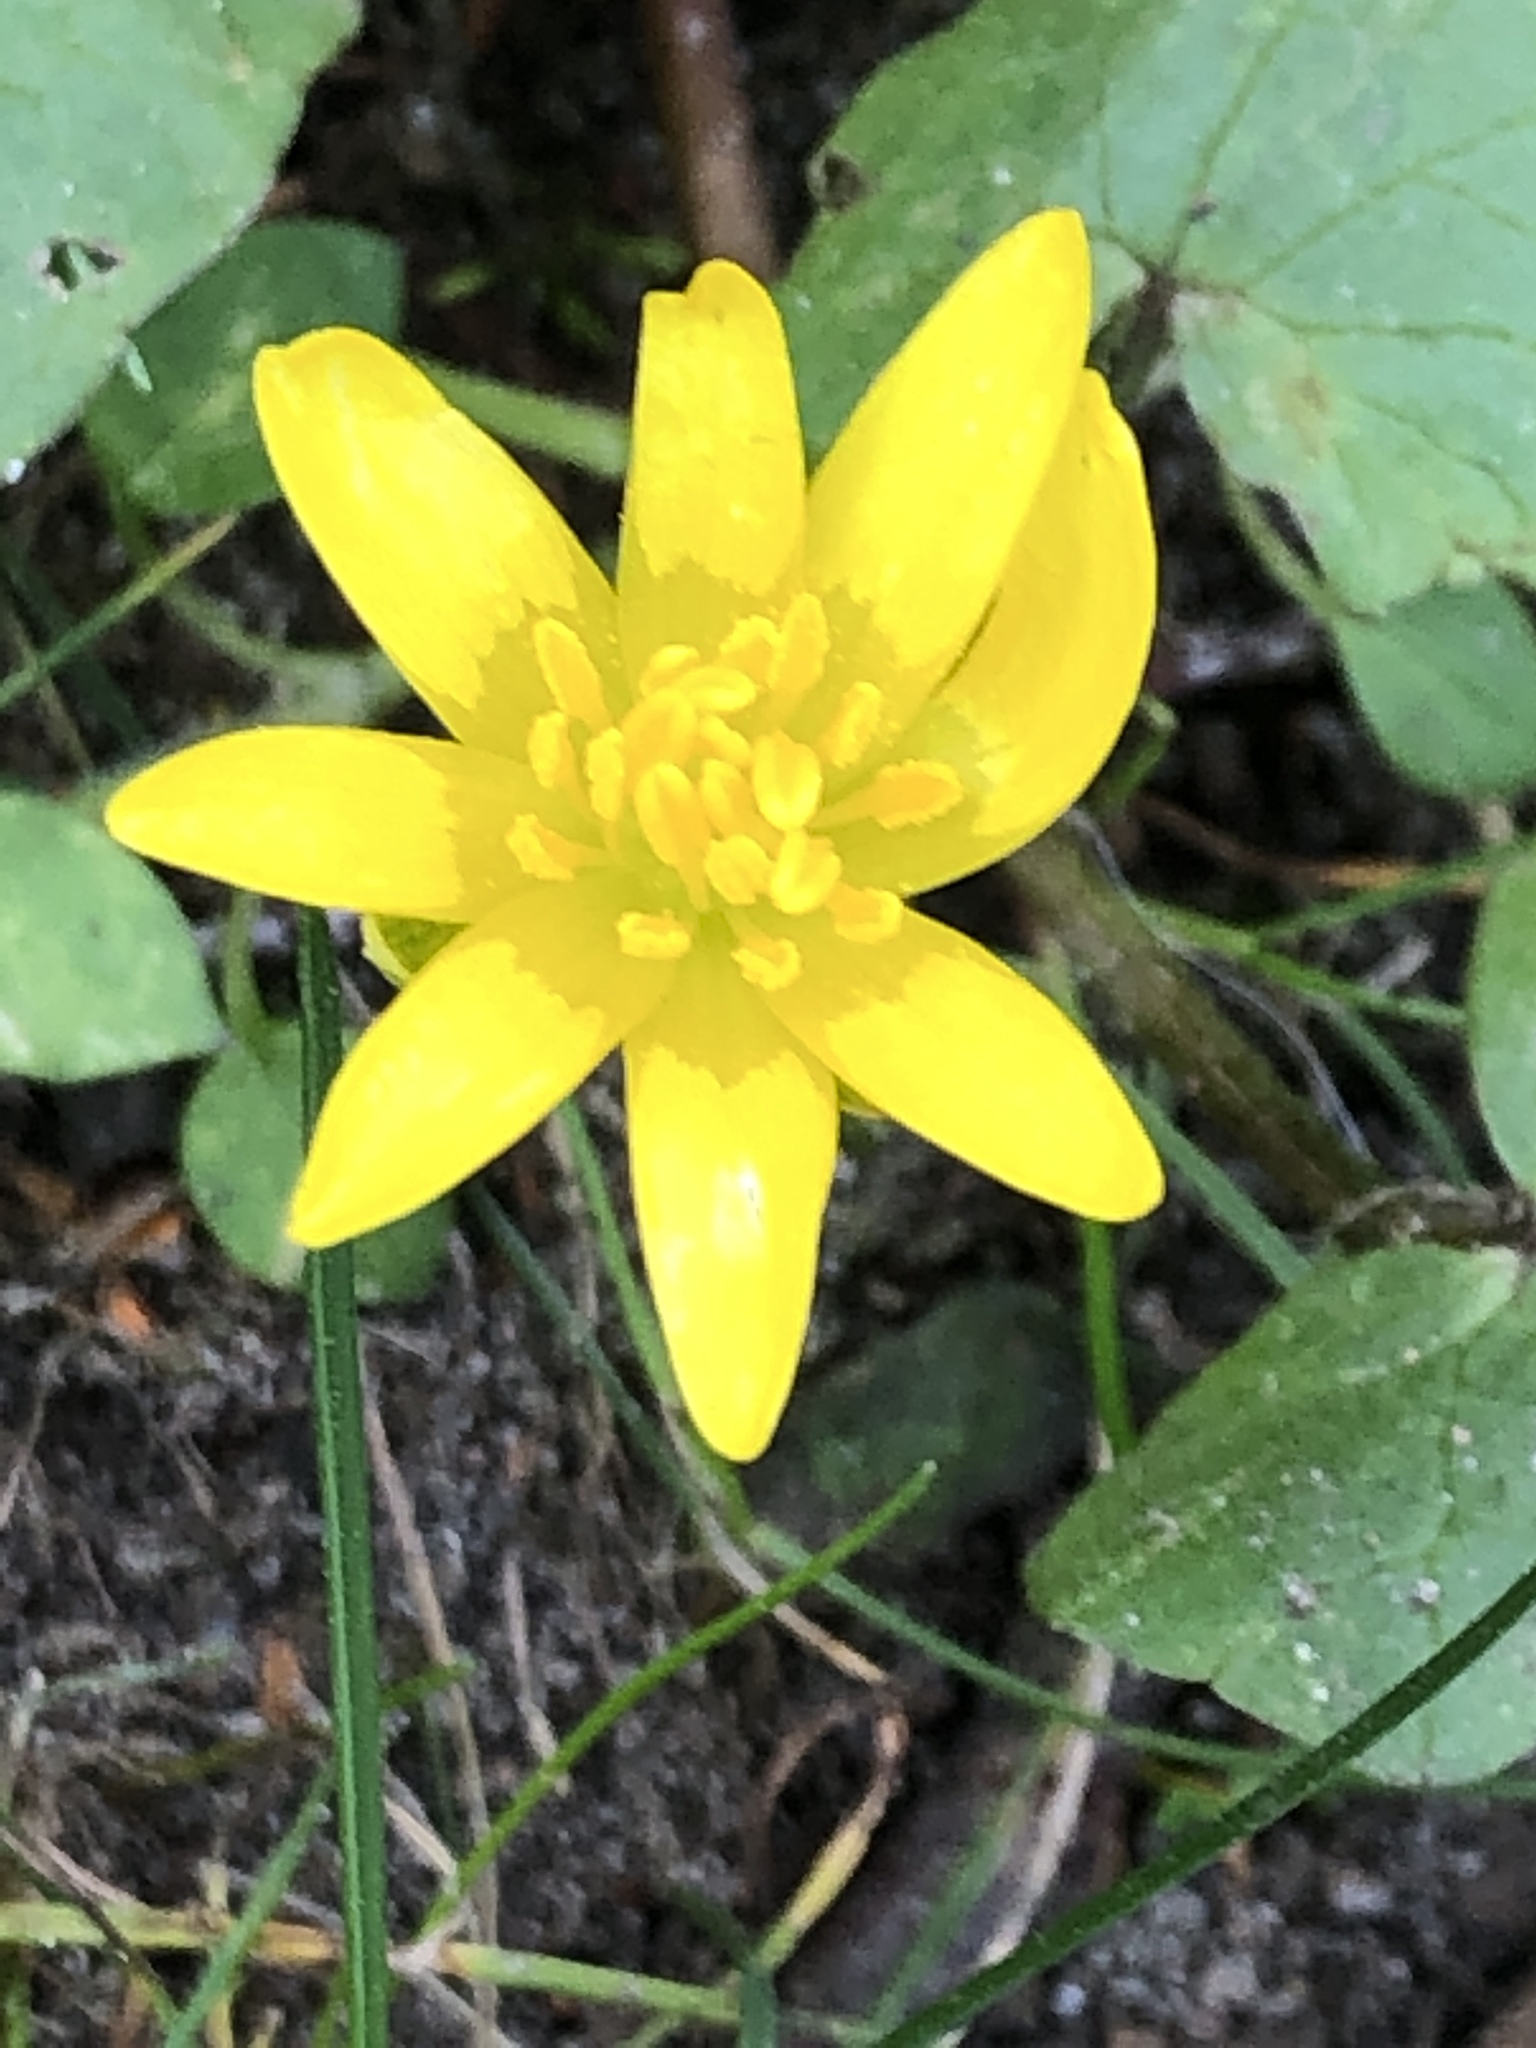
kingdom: Plantae
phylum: Tracheophyta
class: Magnoliopsida
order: Ranunculales
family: Ranunculaceae
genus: Ficaria
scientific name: Ficaria verna
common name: Lesser celandine
